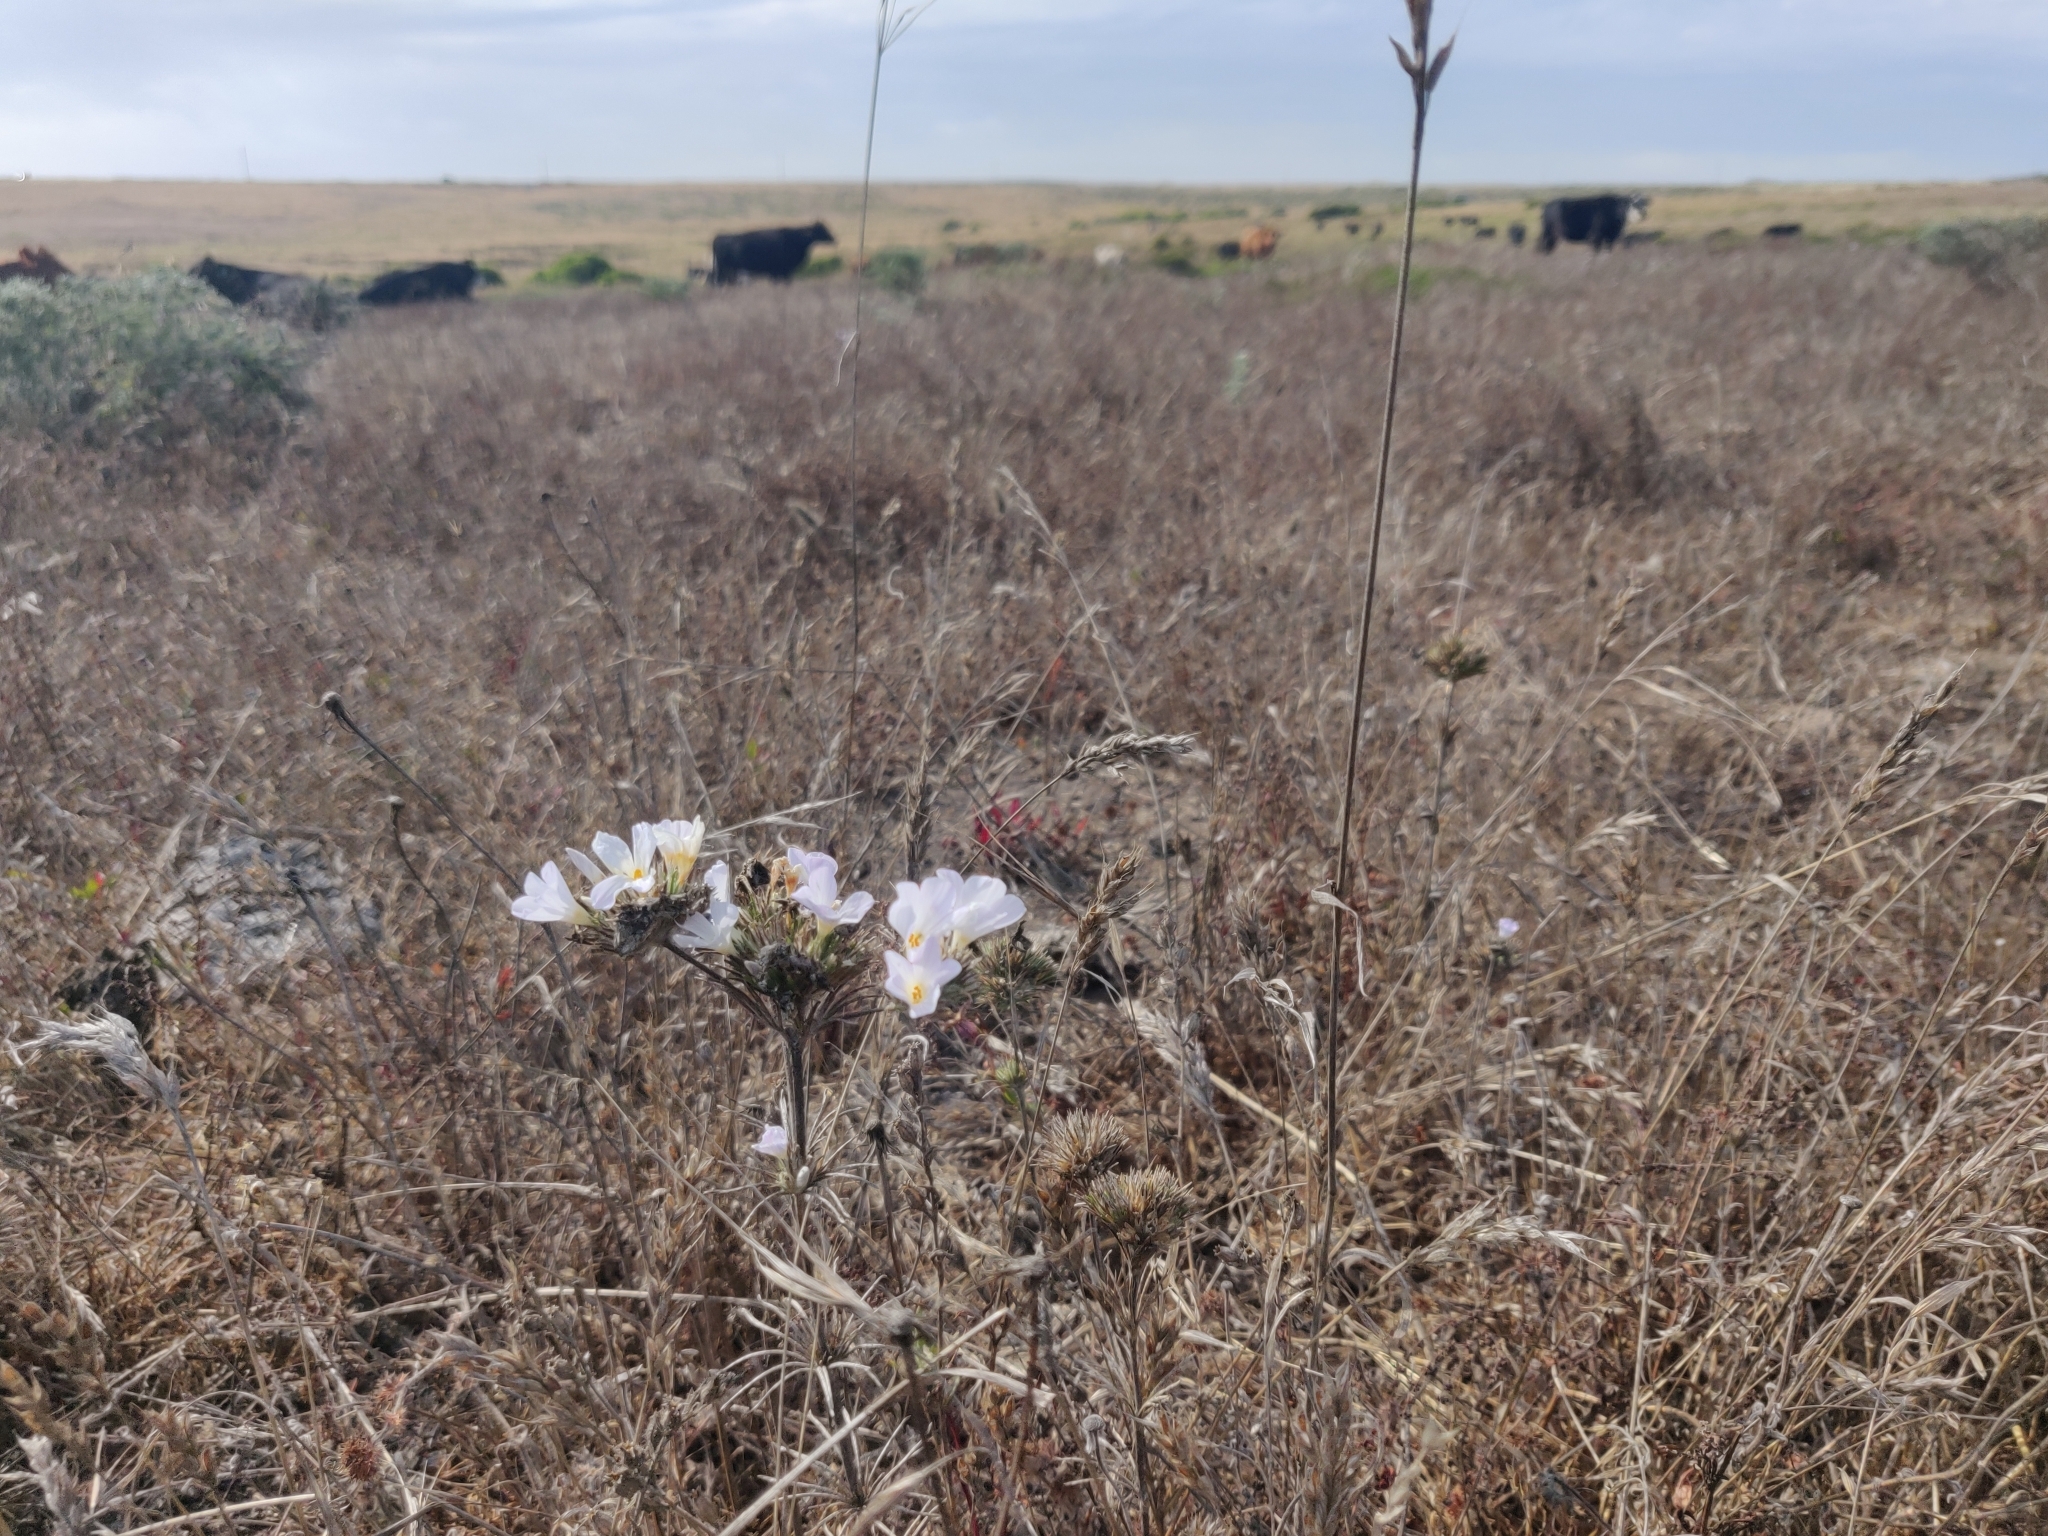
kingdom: Plantae
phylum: Tracheophyta
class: Magnoliopsida
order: Ericales
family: Polemoniaceae
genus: Leptosiphon
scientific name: Leptosiphon grandiflorus
